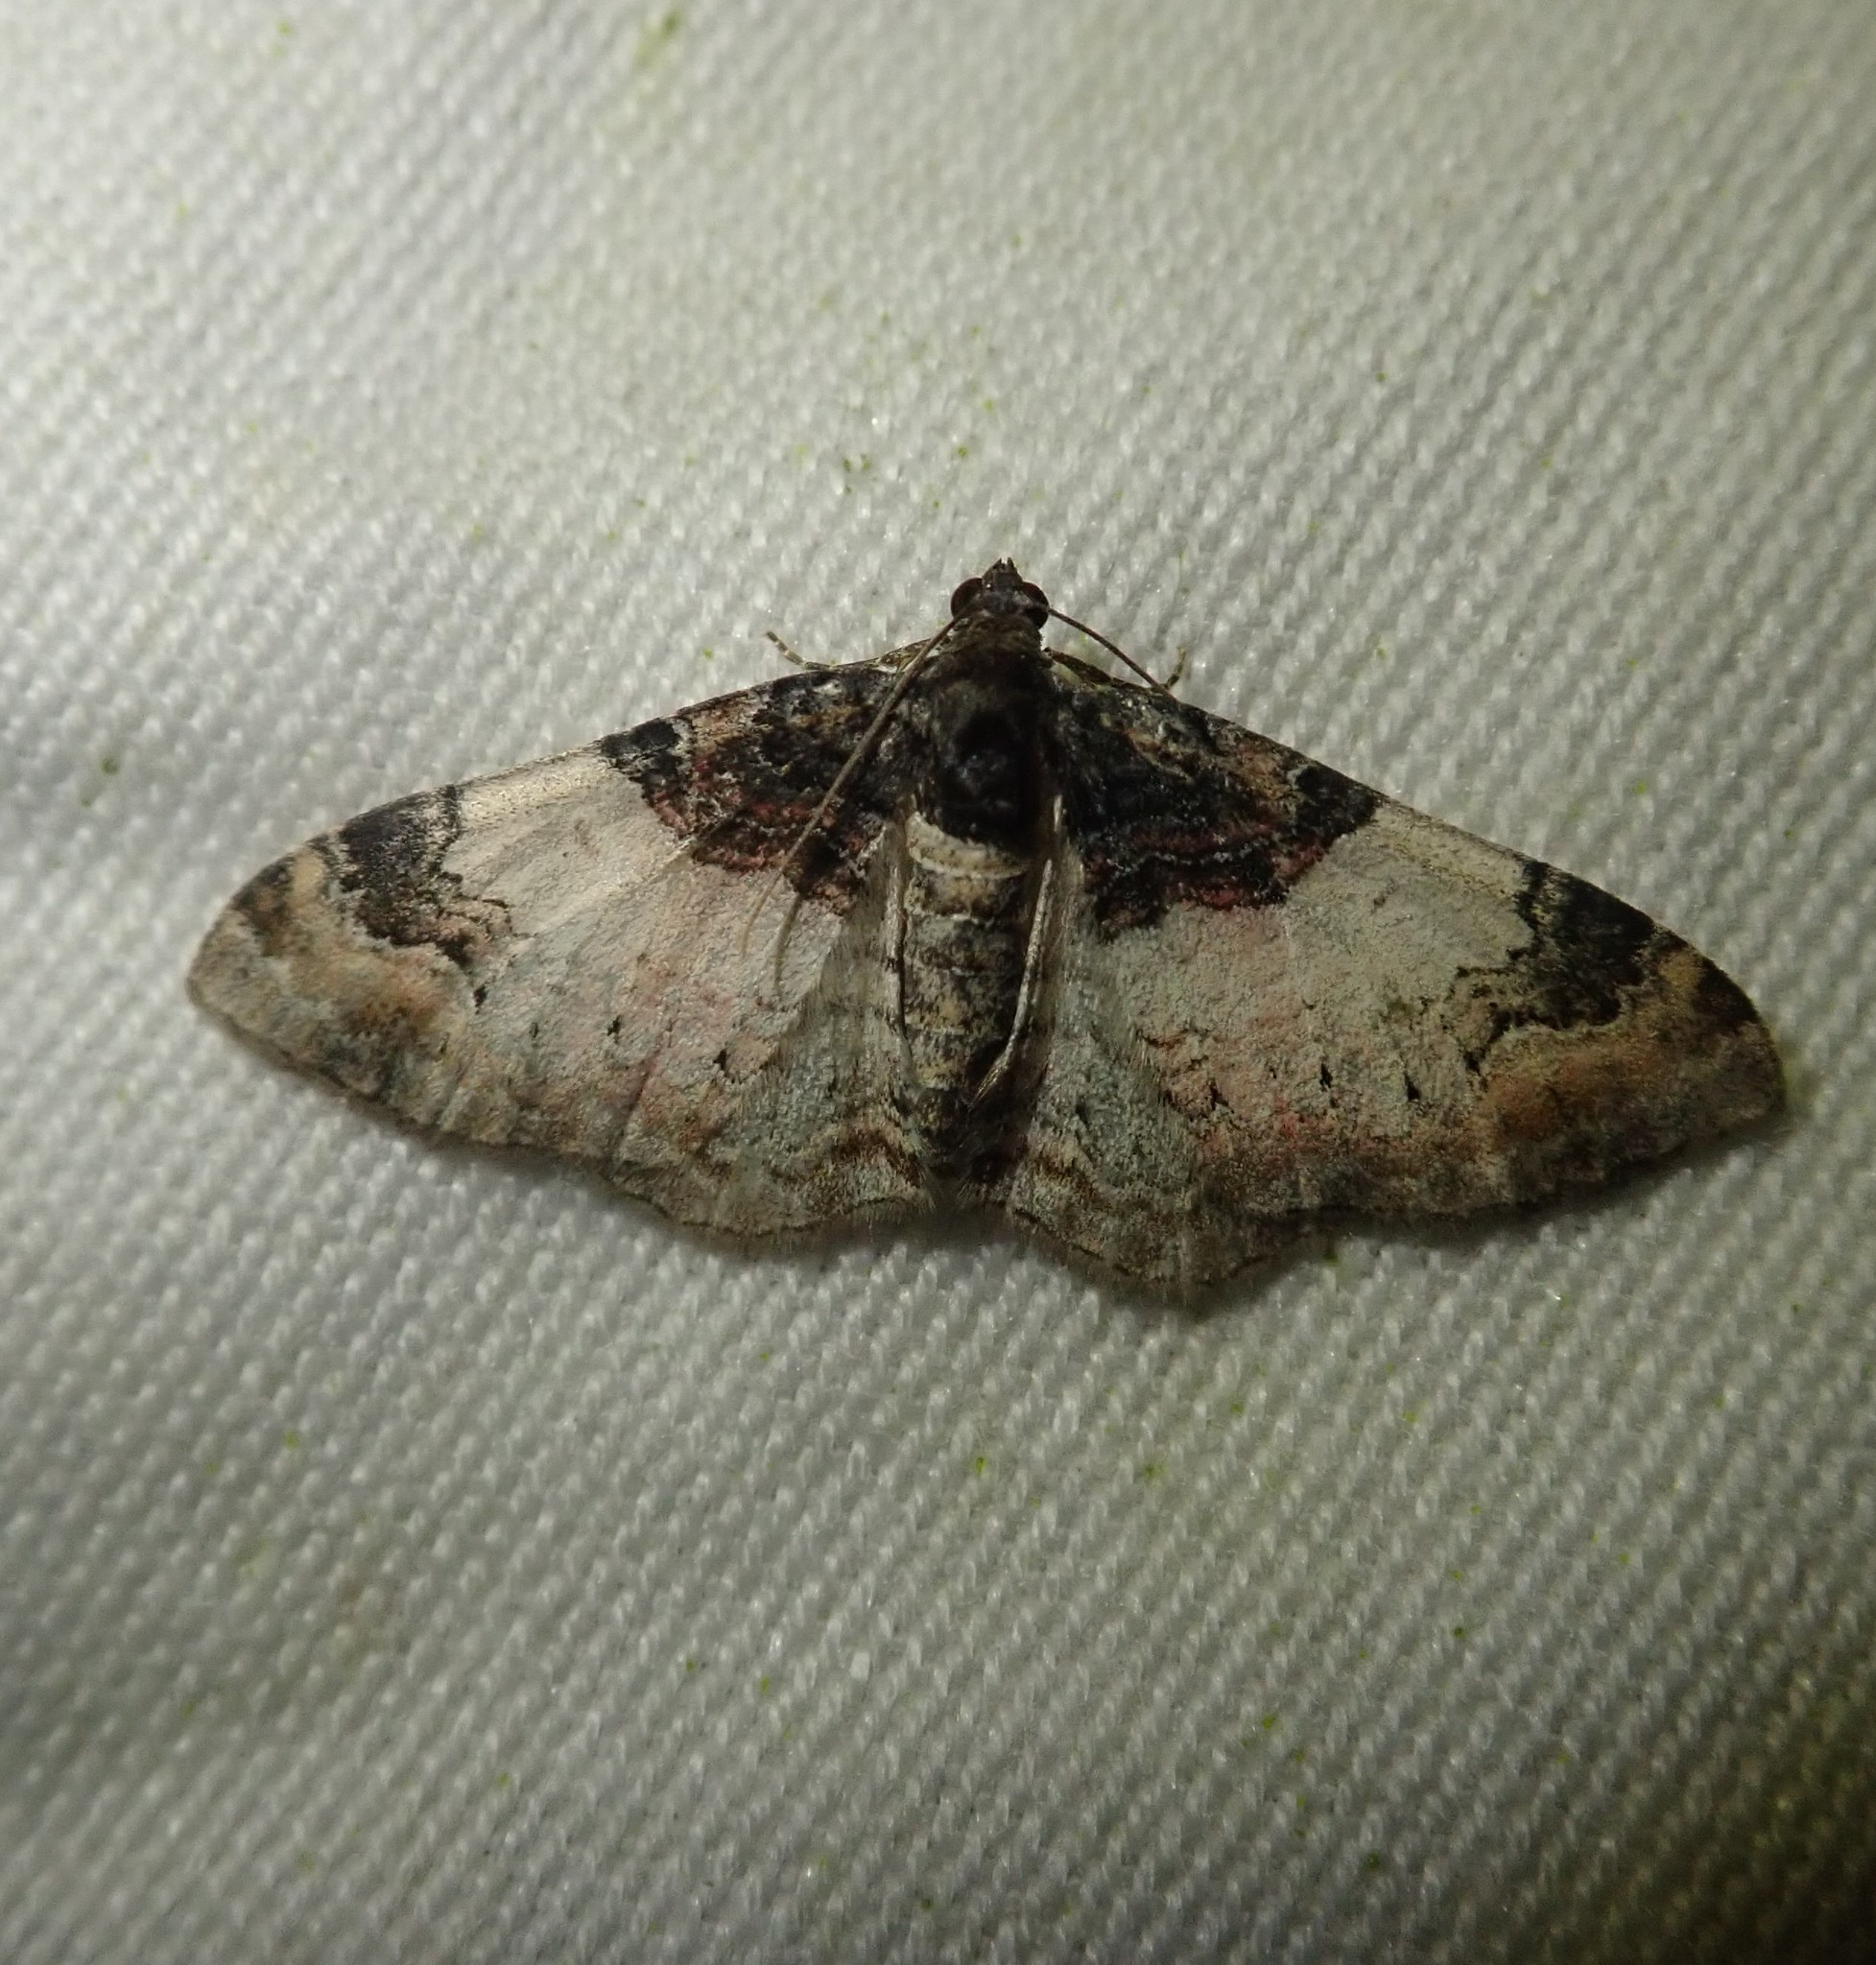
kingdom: Animalia
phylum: Arthropoda
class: Insecta
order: Lepidoptera
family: Geometridae
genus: Catarhoe
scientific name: Catarhoe cuculata
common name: Royal mantle
